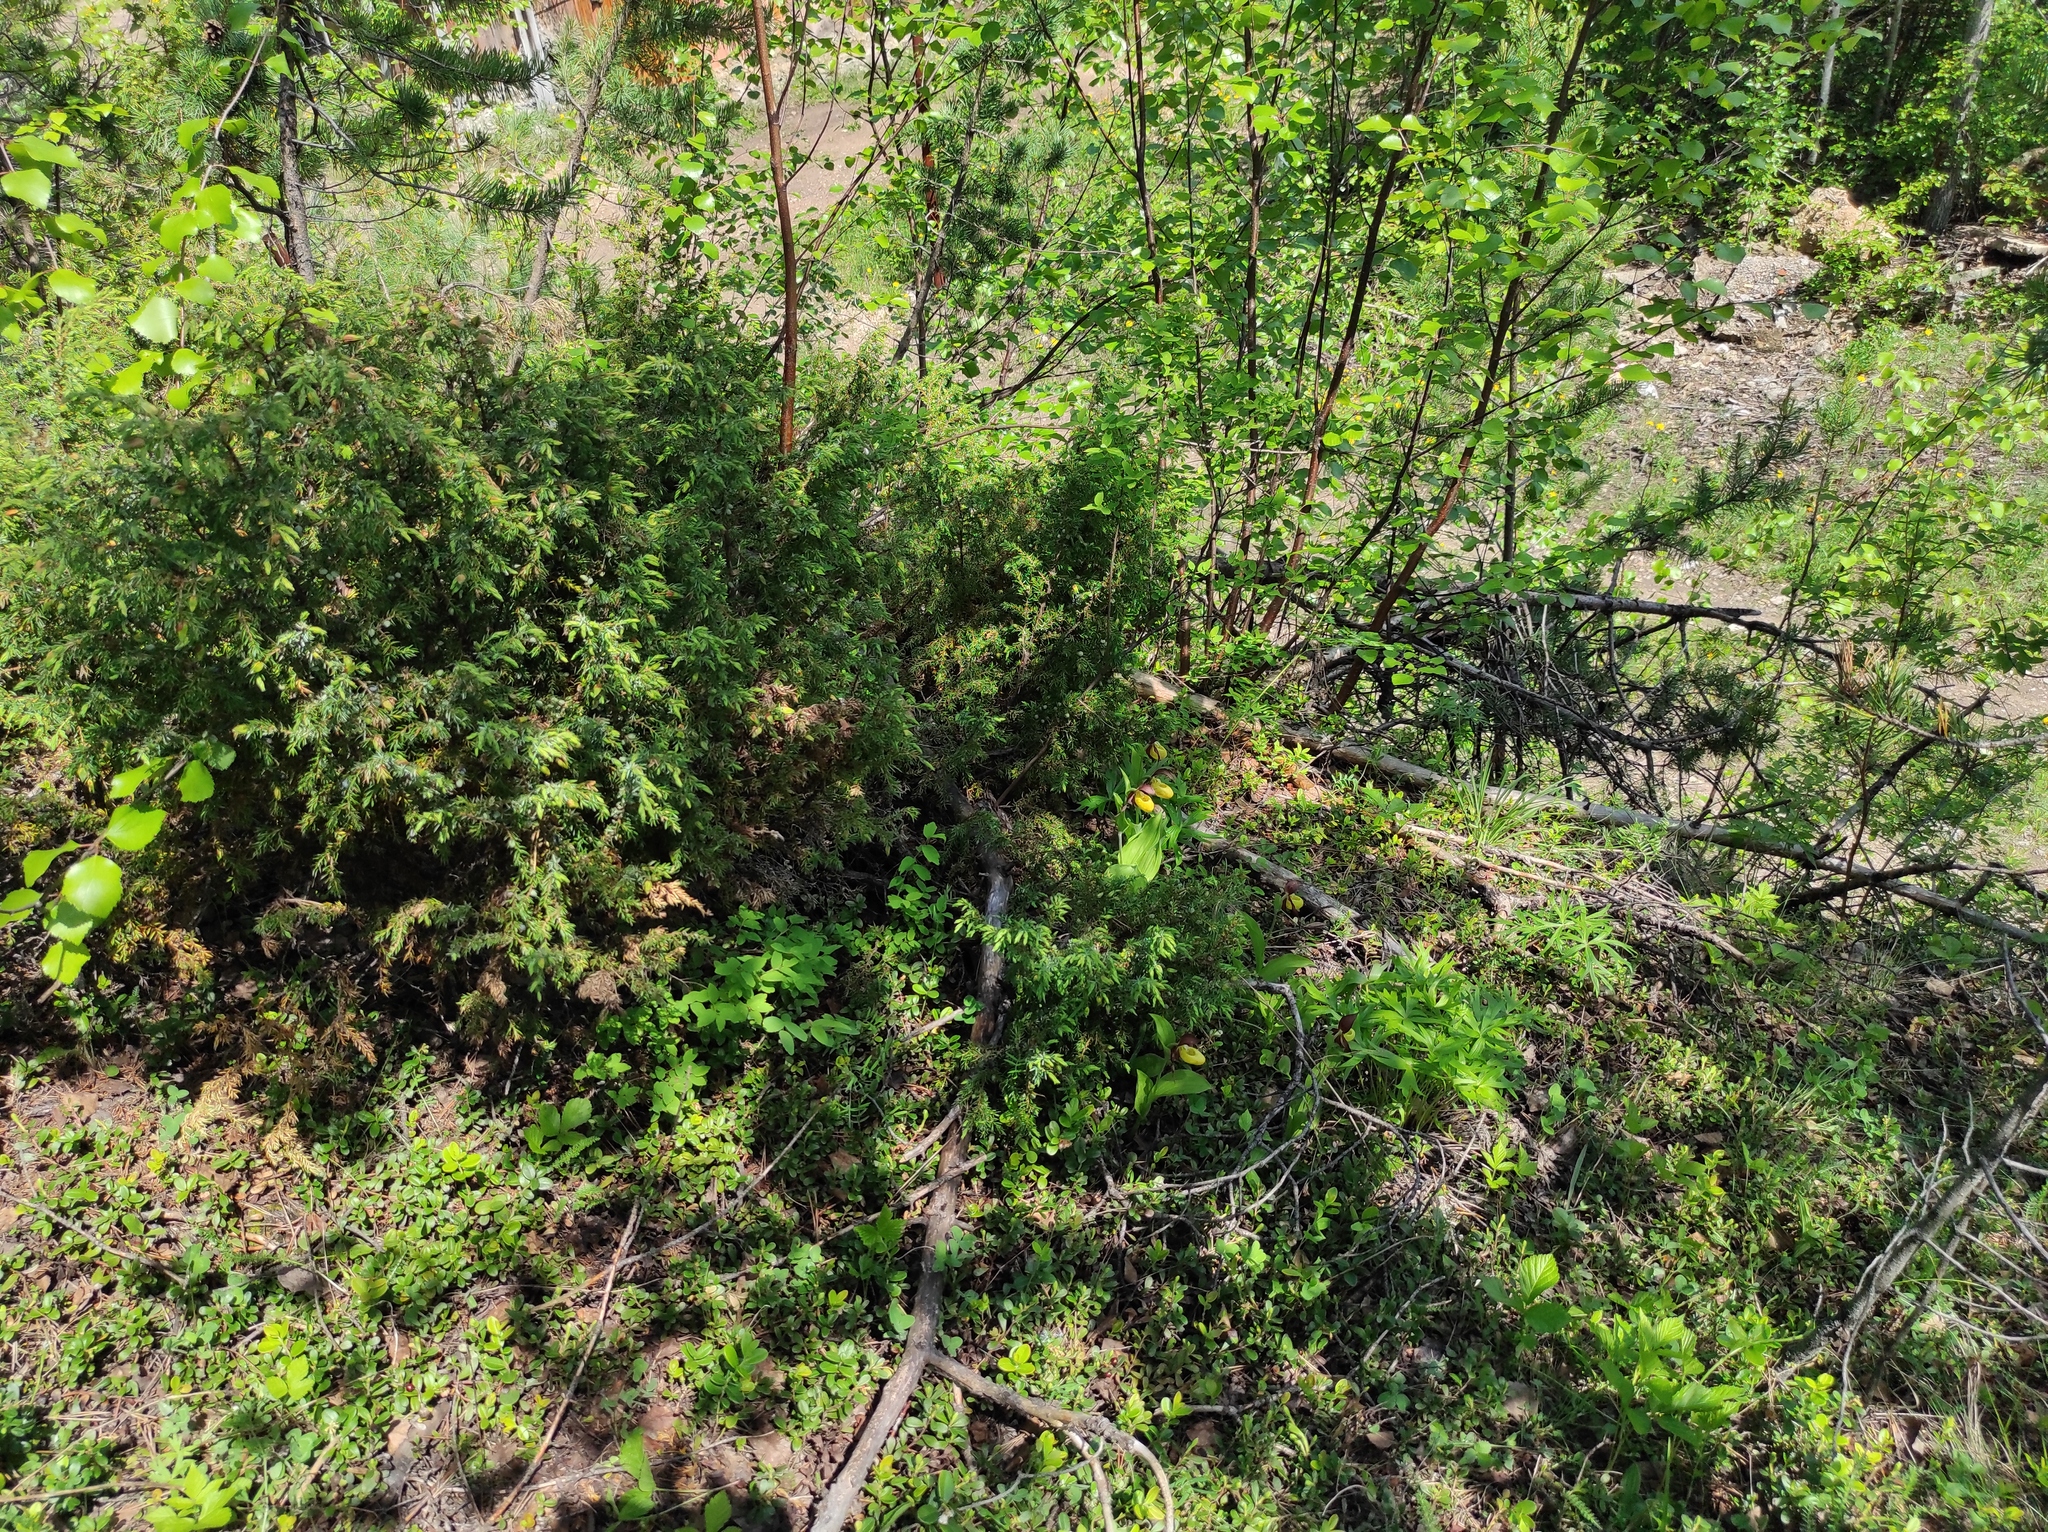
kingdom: Plantae
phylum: Tracheophyta
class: Liliopsida
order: Asparagales
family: Orchidaceae
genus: Dactylorhiza
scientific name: Dactylorhiza maculata
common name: Heath spotted-orchid
